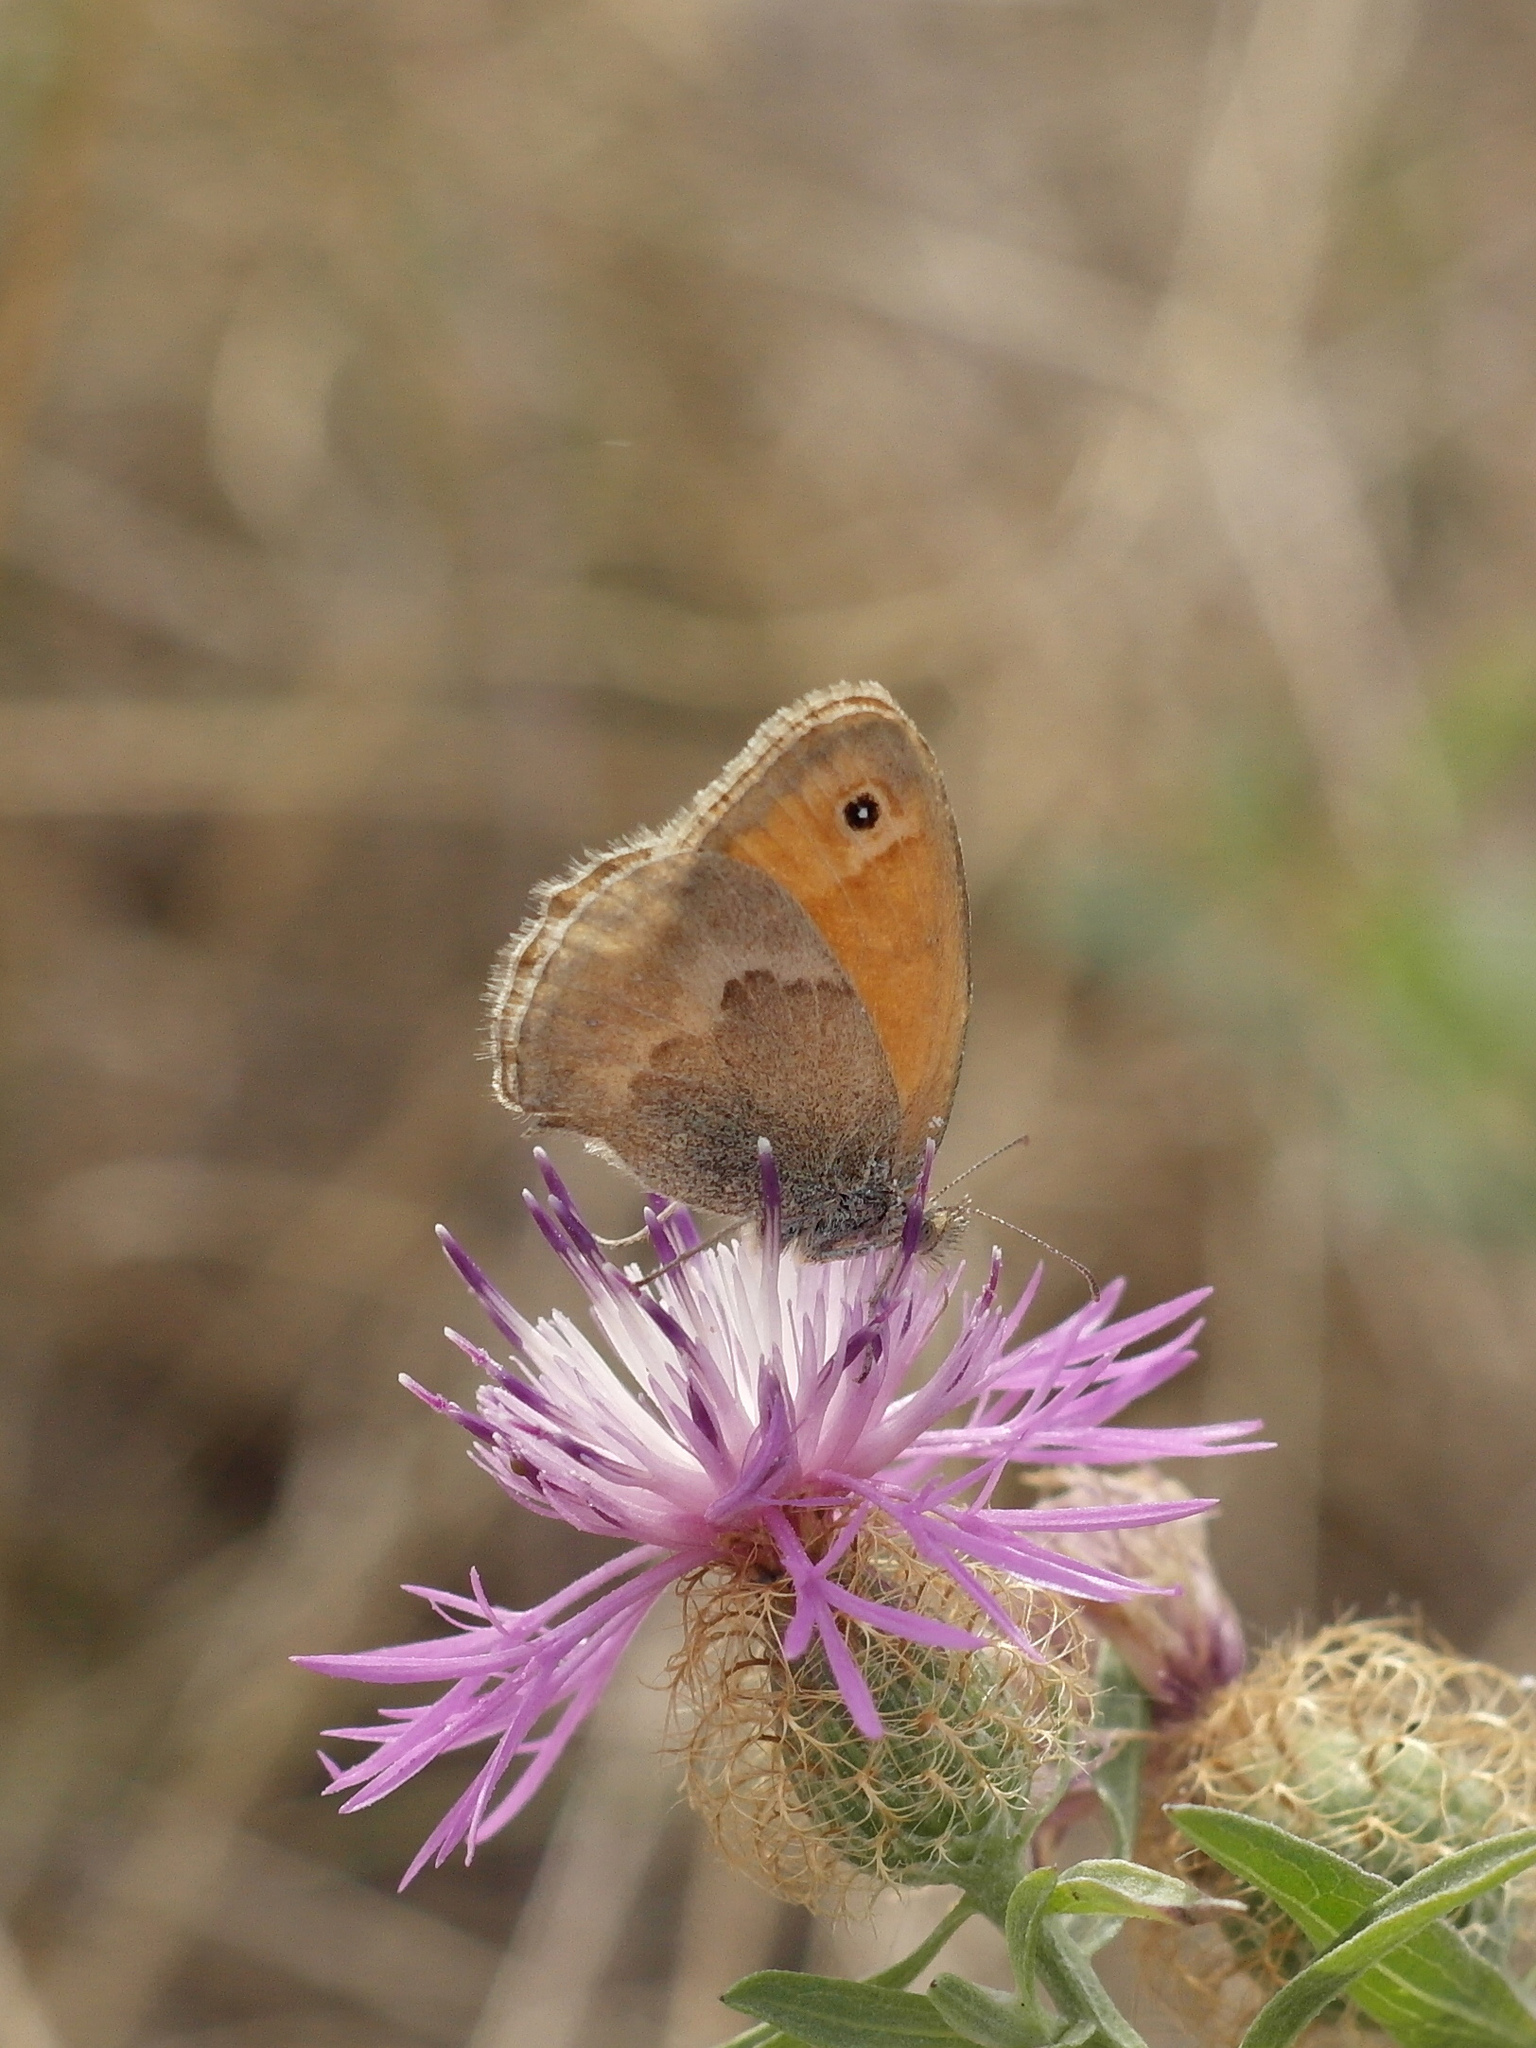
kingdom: Animalia
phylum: Arthropoda
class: Insecta
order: Lepidoptera
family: Nymphalidae
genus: Coenonympha
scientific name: Coenonympha pamphilus
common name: Small heath
